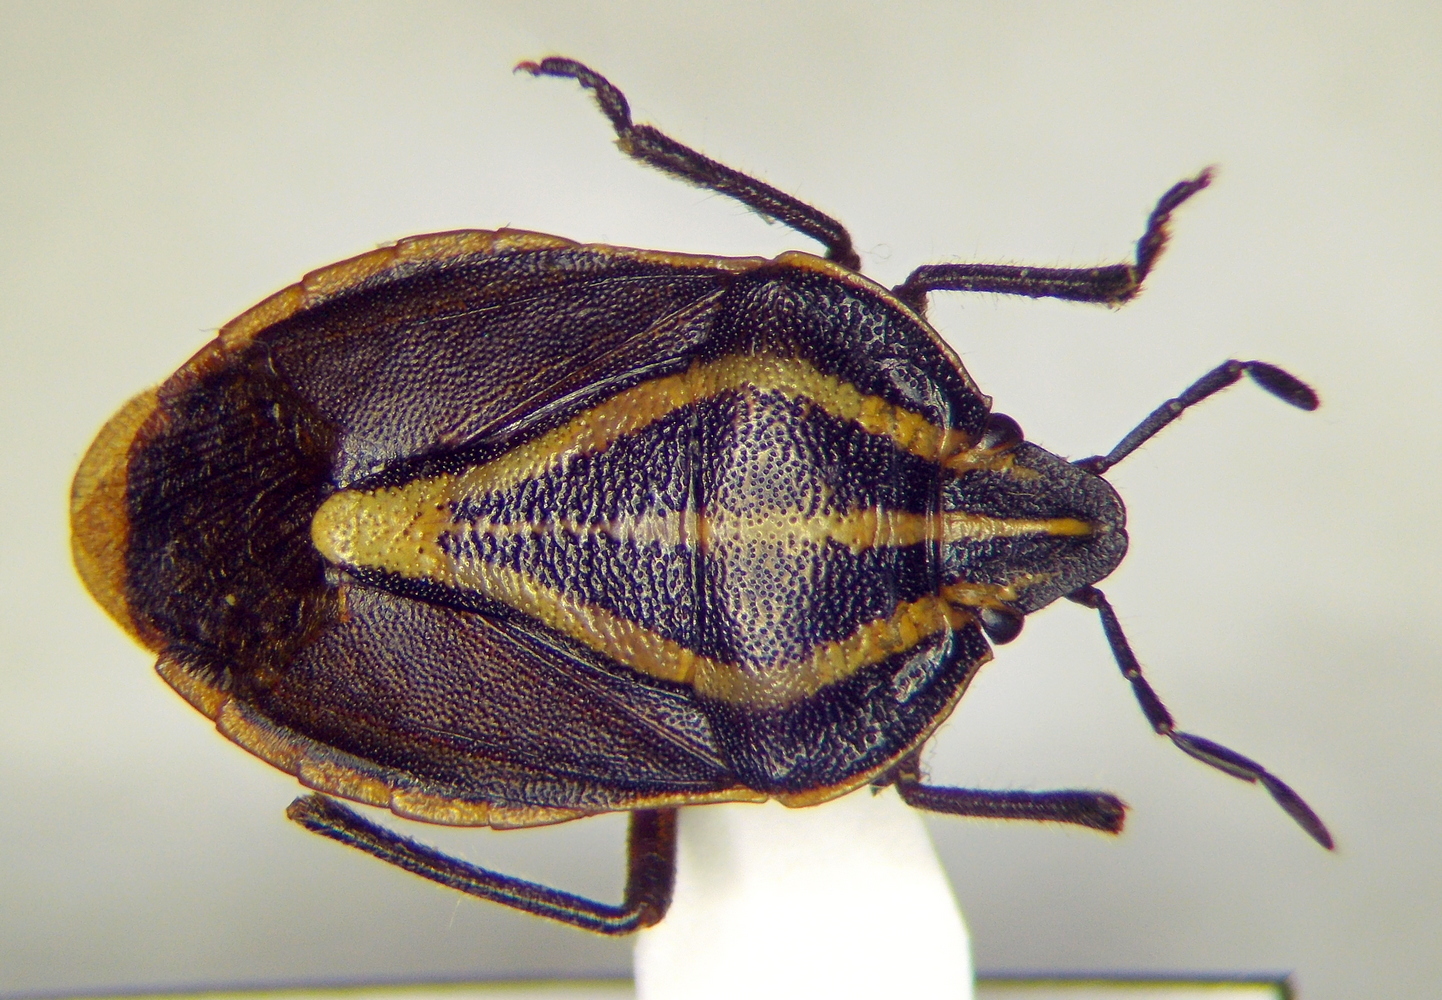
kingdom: Animalia
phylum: Arthropoda
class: Insecta
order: Hemiptera
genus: Rhombocoris
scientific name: Rhombocoris
